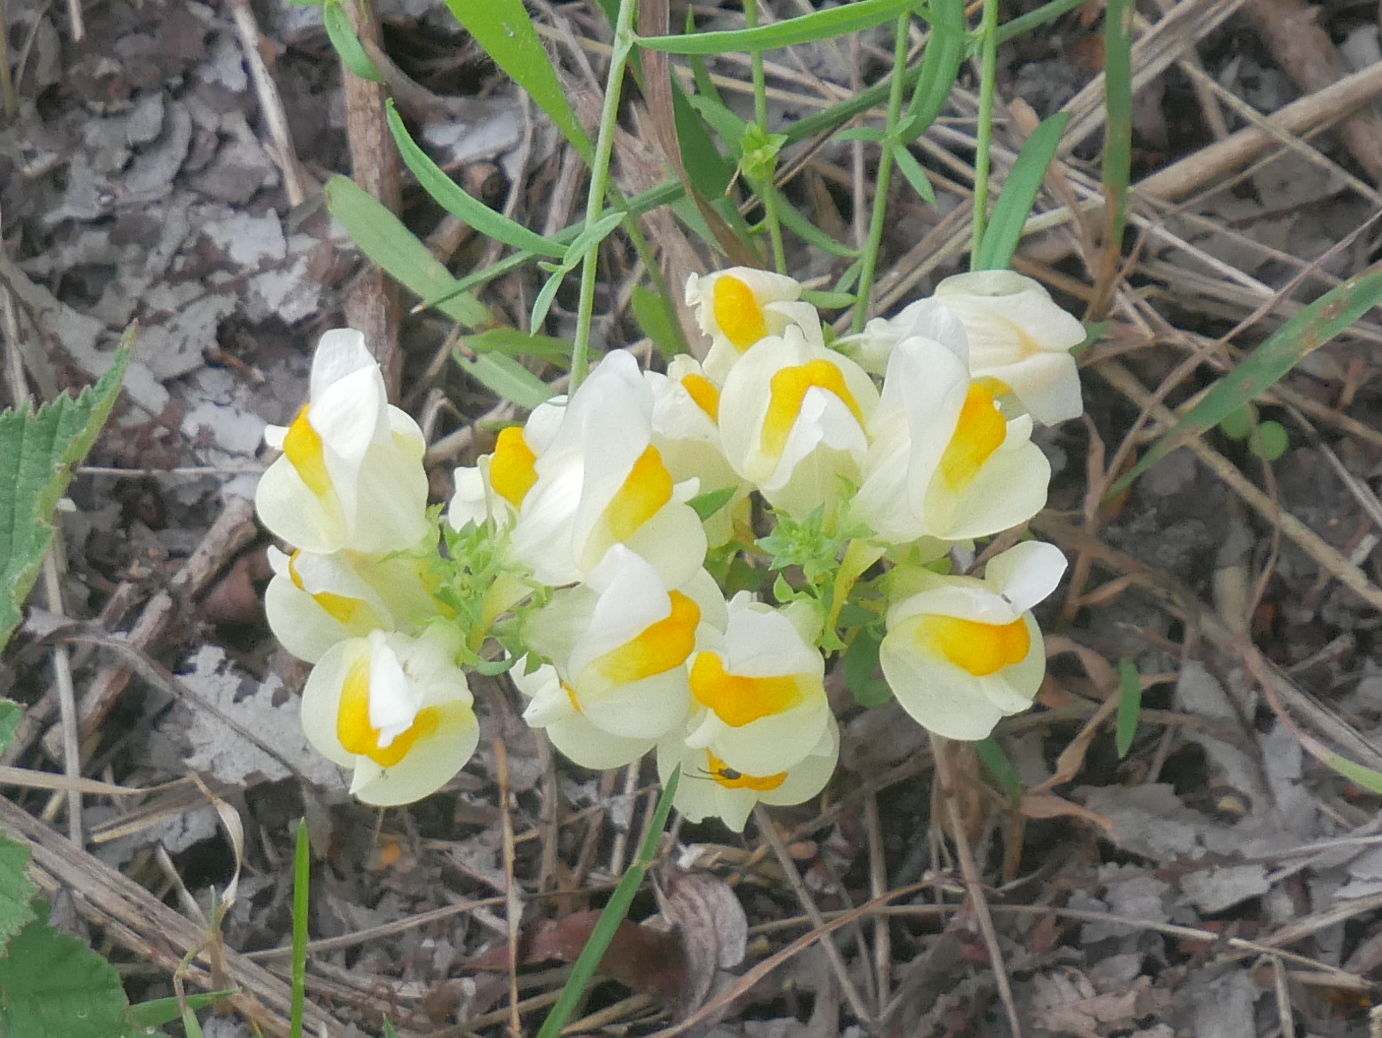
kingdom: Plantae
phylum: Tracheophyta
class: Magnoliopsida
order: Lamiales
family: Plantaginaceae
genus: Linaria
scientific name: Linaria vulgaris
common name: Butter and eggs
